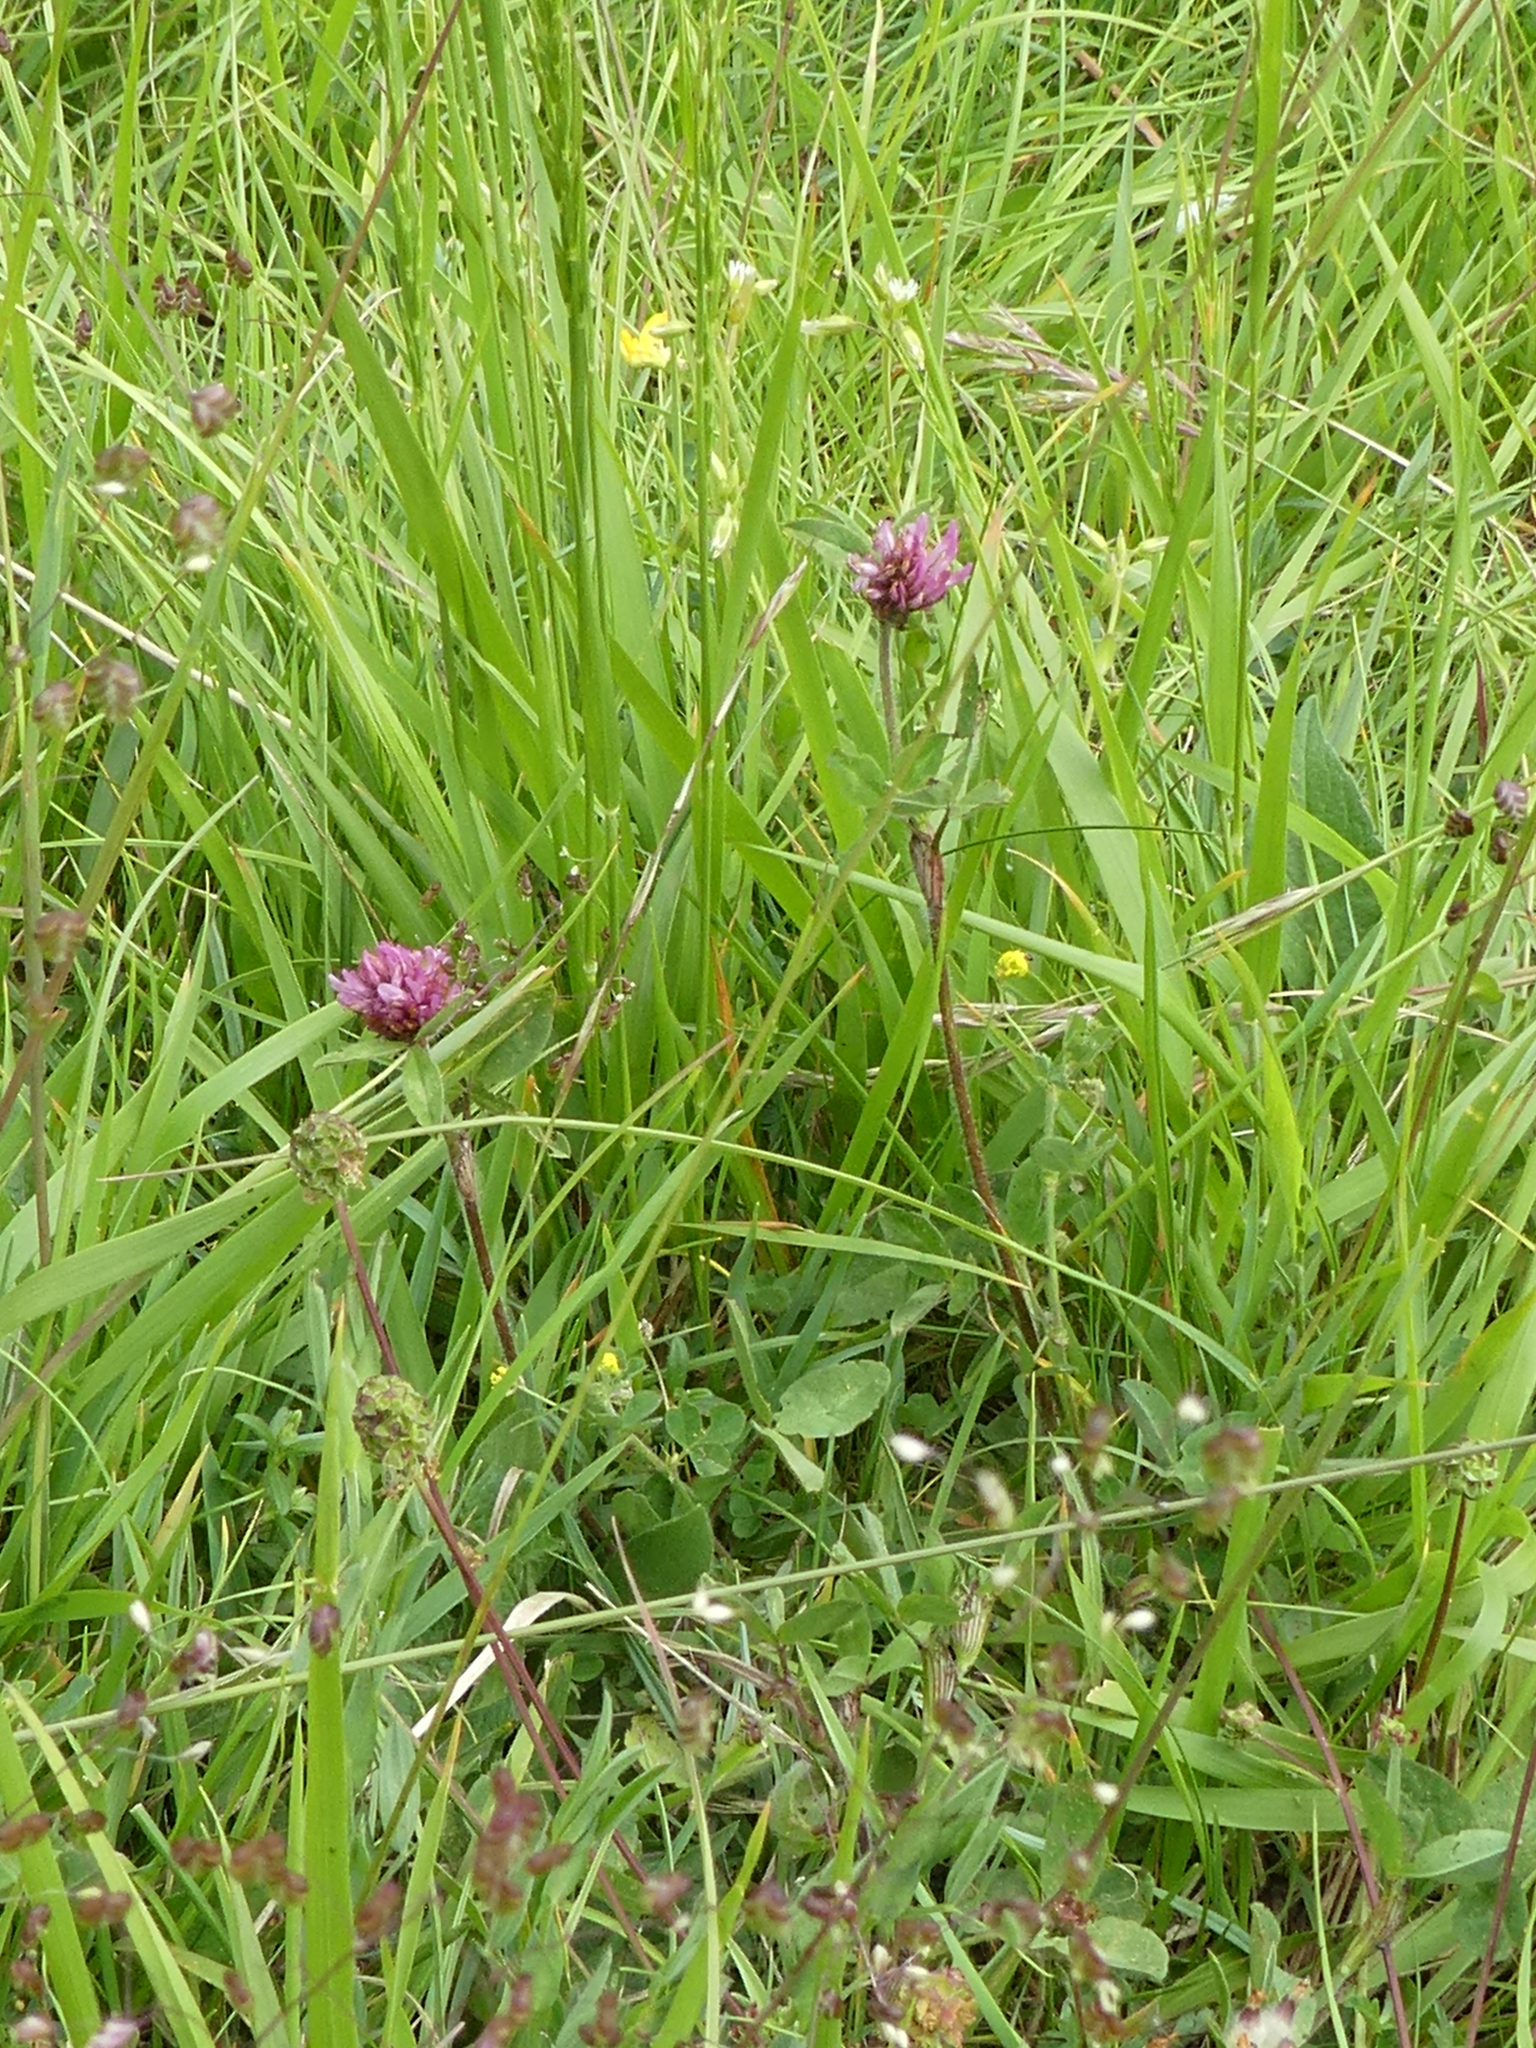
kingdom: Plantae
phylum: Tracheophyta
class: Magnoliopsida
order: Fabales
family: Fabaceae
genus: Trifolium
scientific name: Trifolium pratense
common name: Red clover
